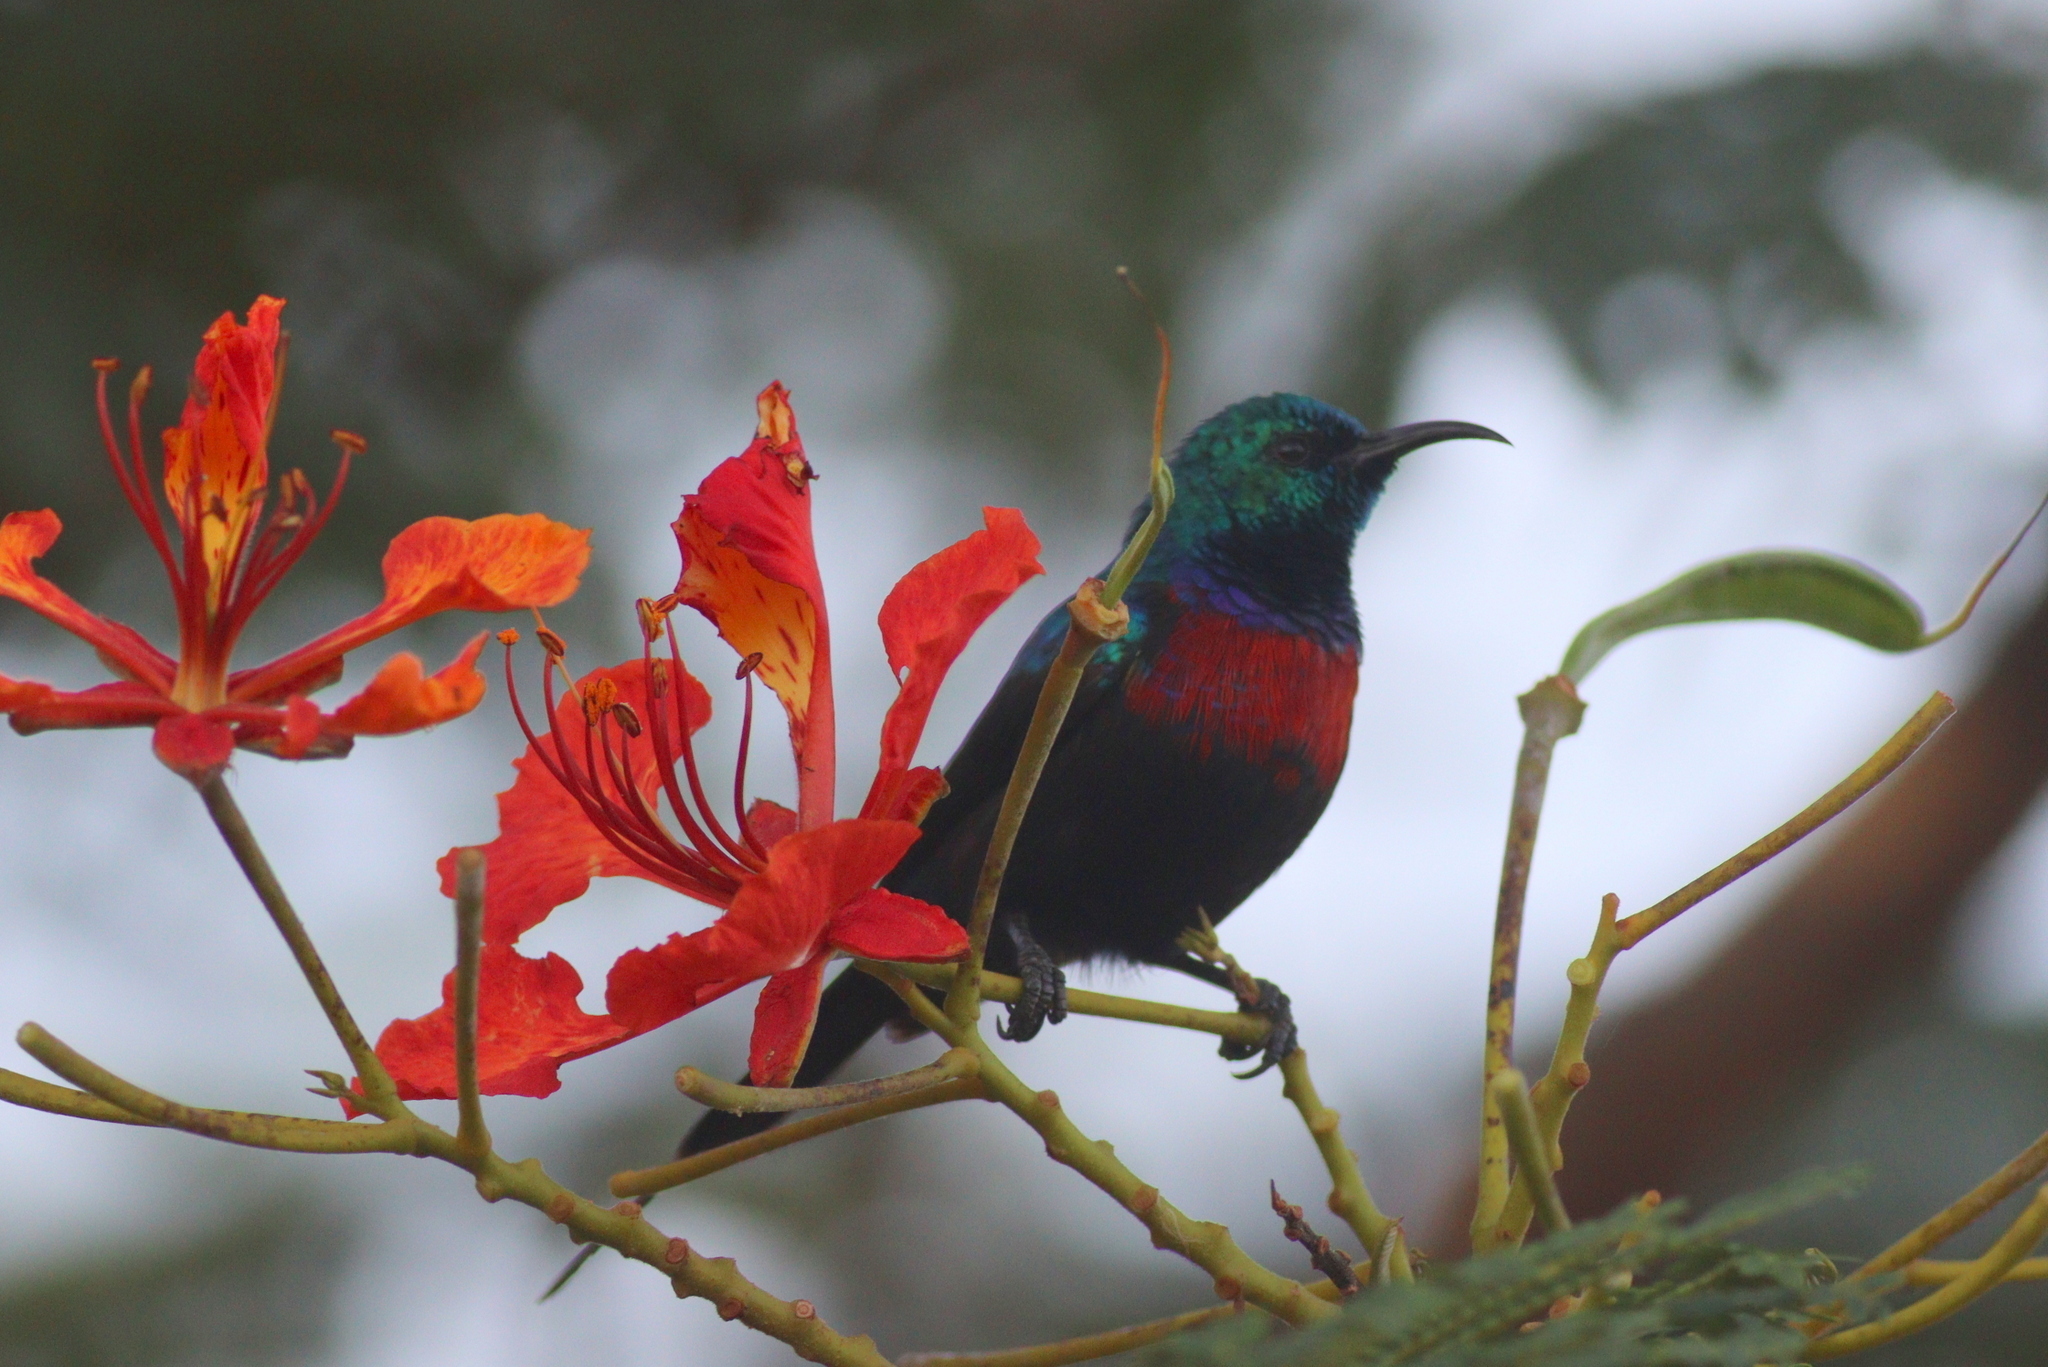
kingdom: Animalia
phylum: Chordata
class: Aves
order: Passeriformes
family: Nectariniidae
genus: Cinnyris
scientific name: Cinnyris erythrocercus
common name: Red-chested sunbird
